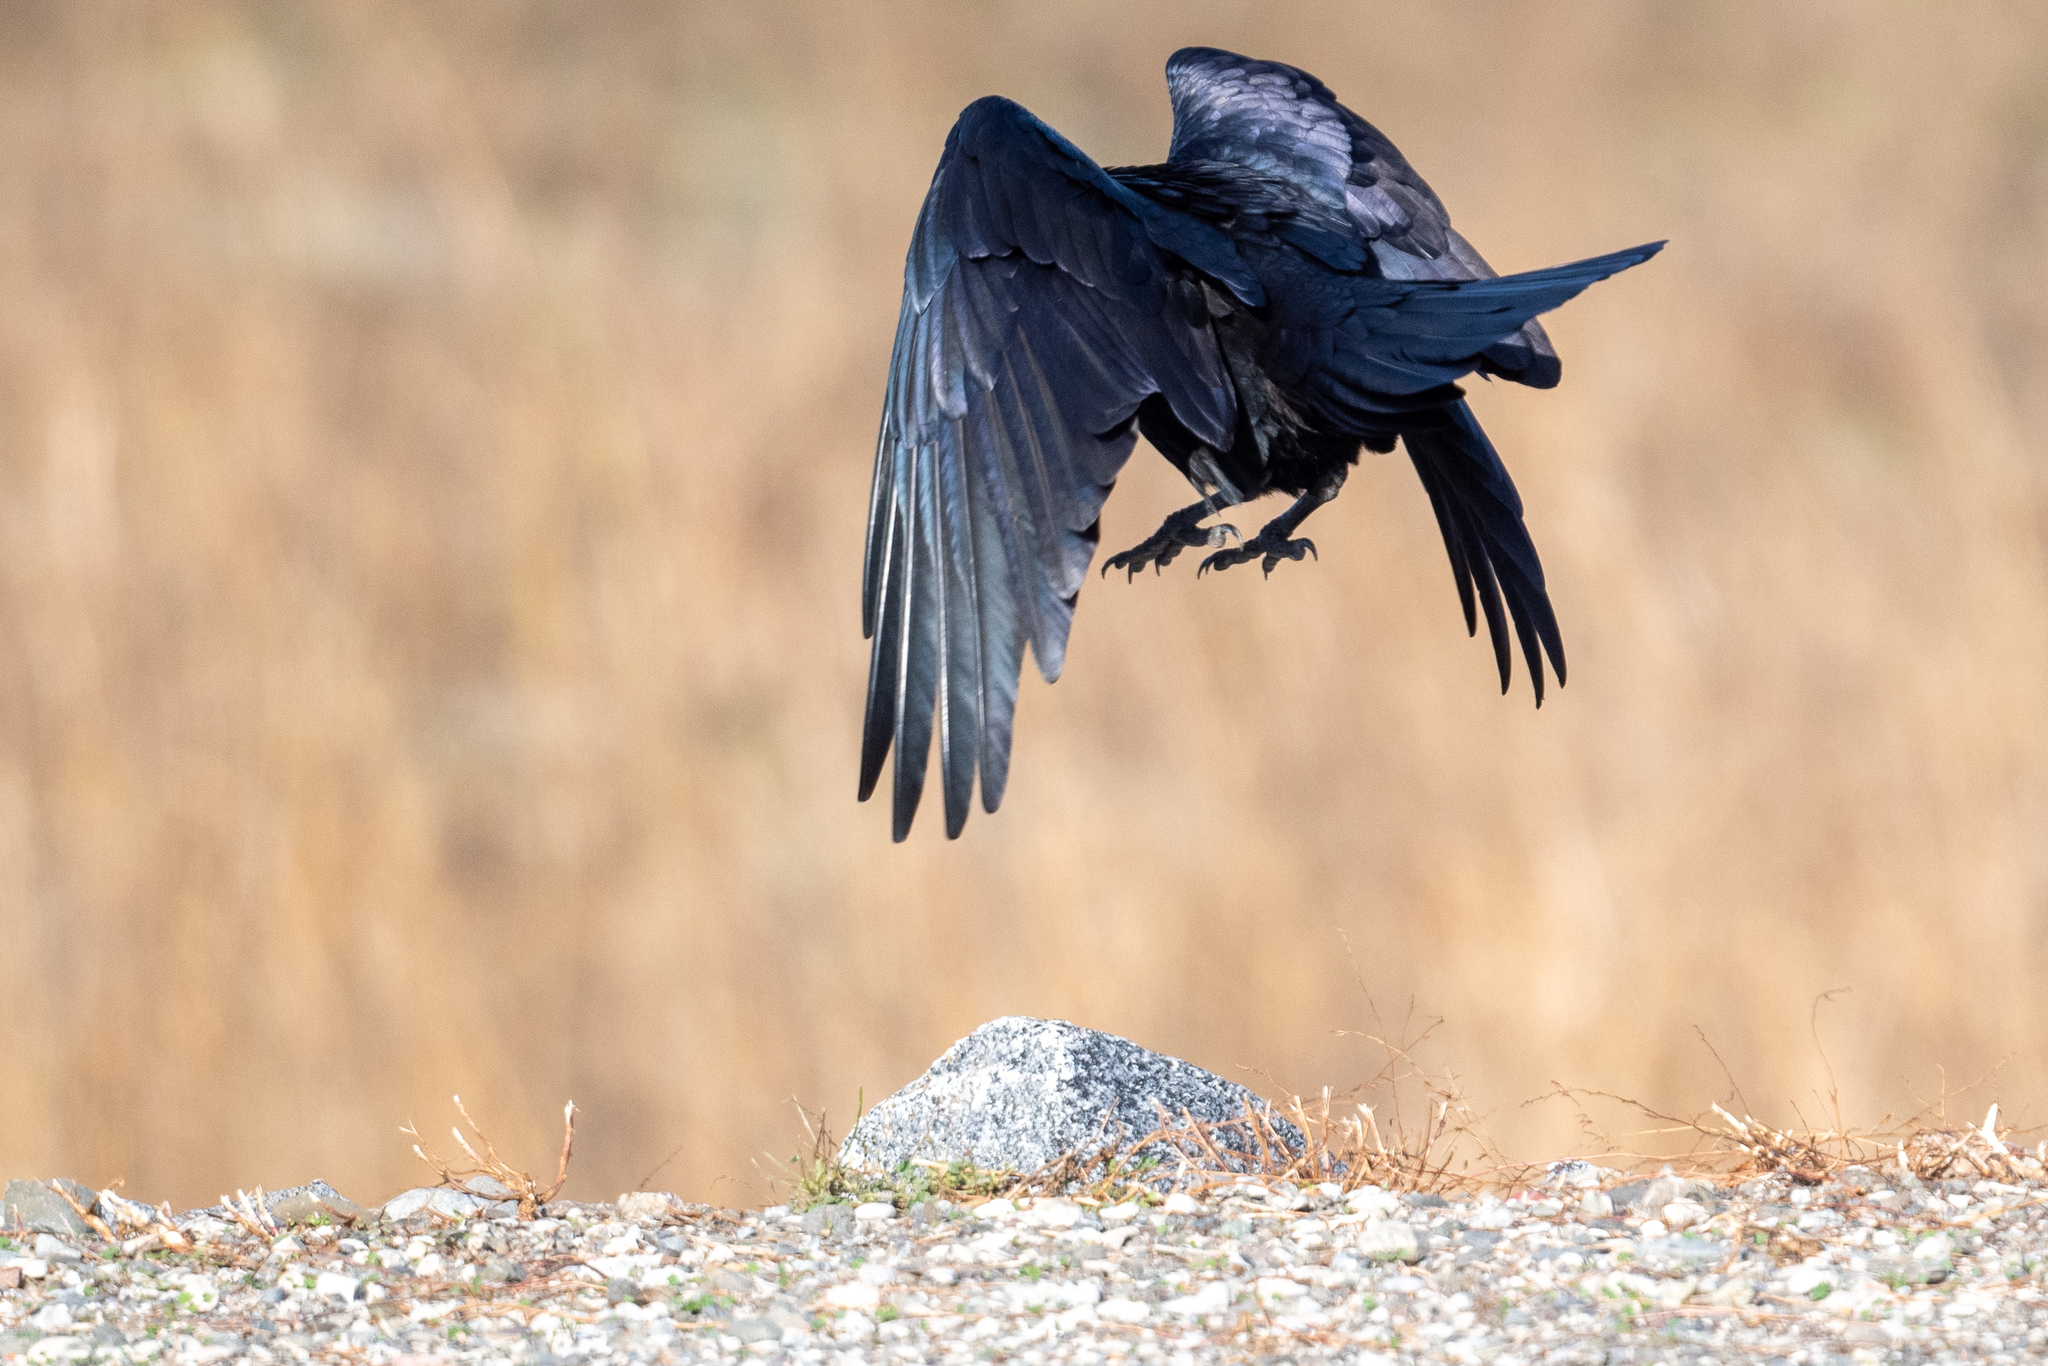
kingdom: Animalia
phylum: Chordata
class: Aves
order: Passeriformes
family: Corvidae
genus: Corvus
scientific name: Corvus corax
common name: Common raven
